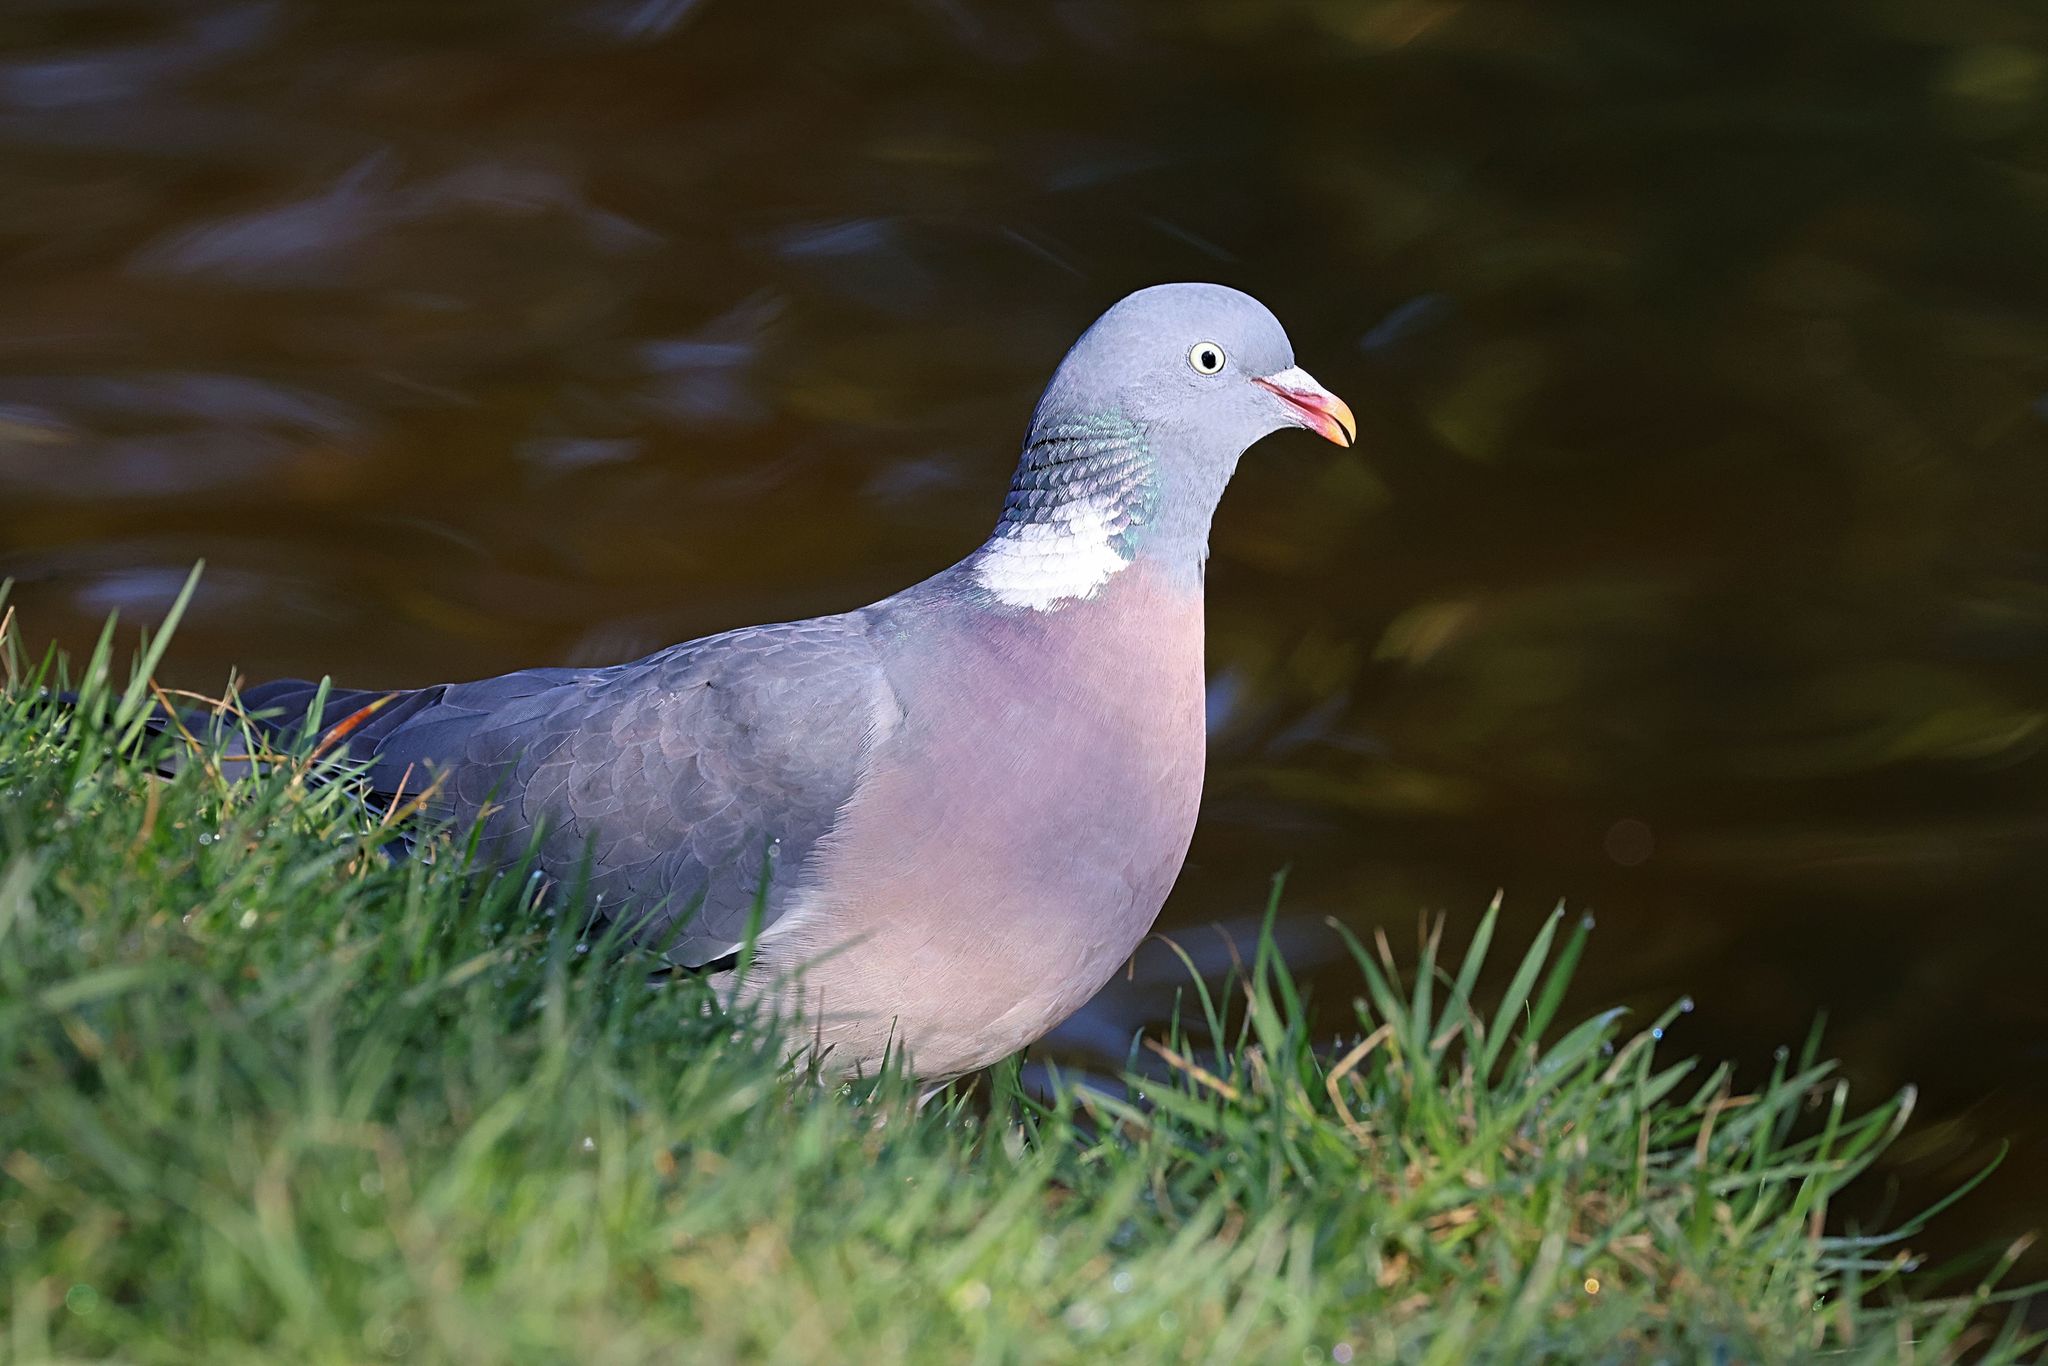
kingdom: Animalia
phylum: Chordata
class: Aves
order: Columbiformes
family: Columbidae
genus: Columba
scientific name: Columba palumbus
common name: Common wood pigeon
